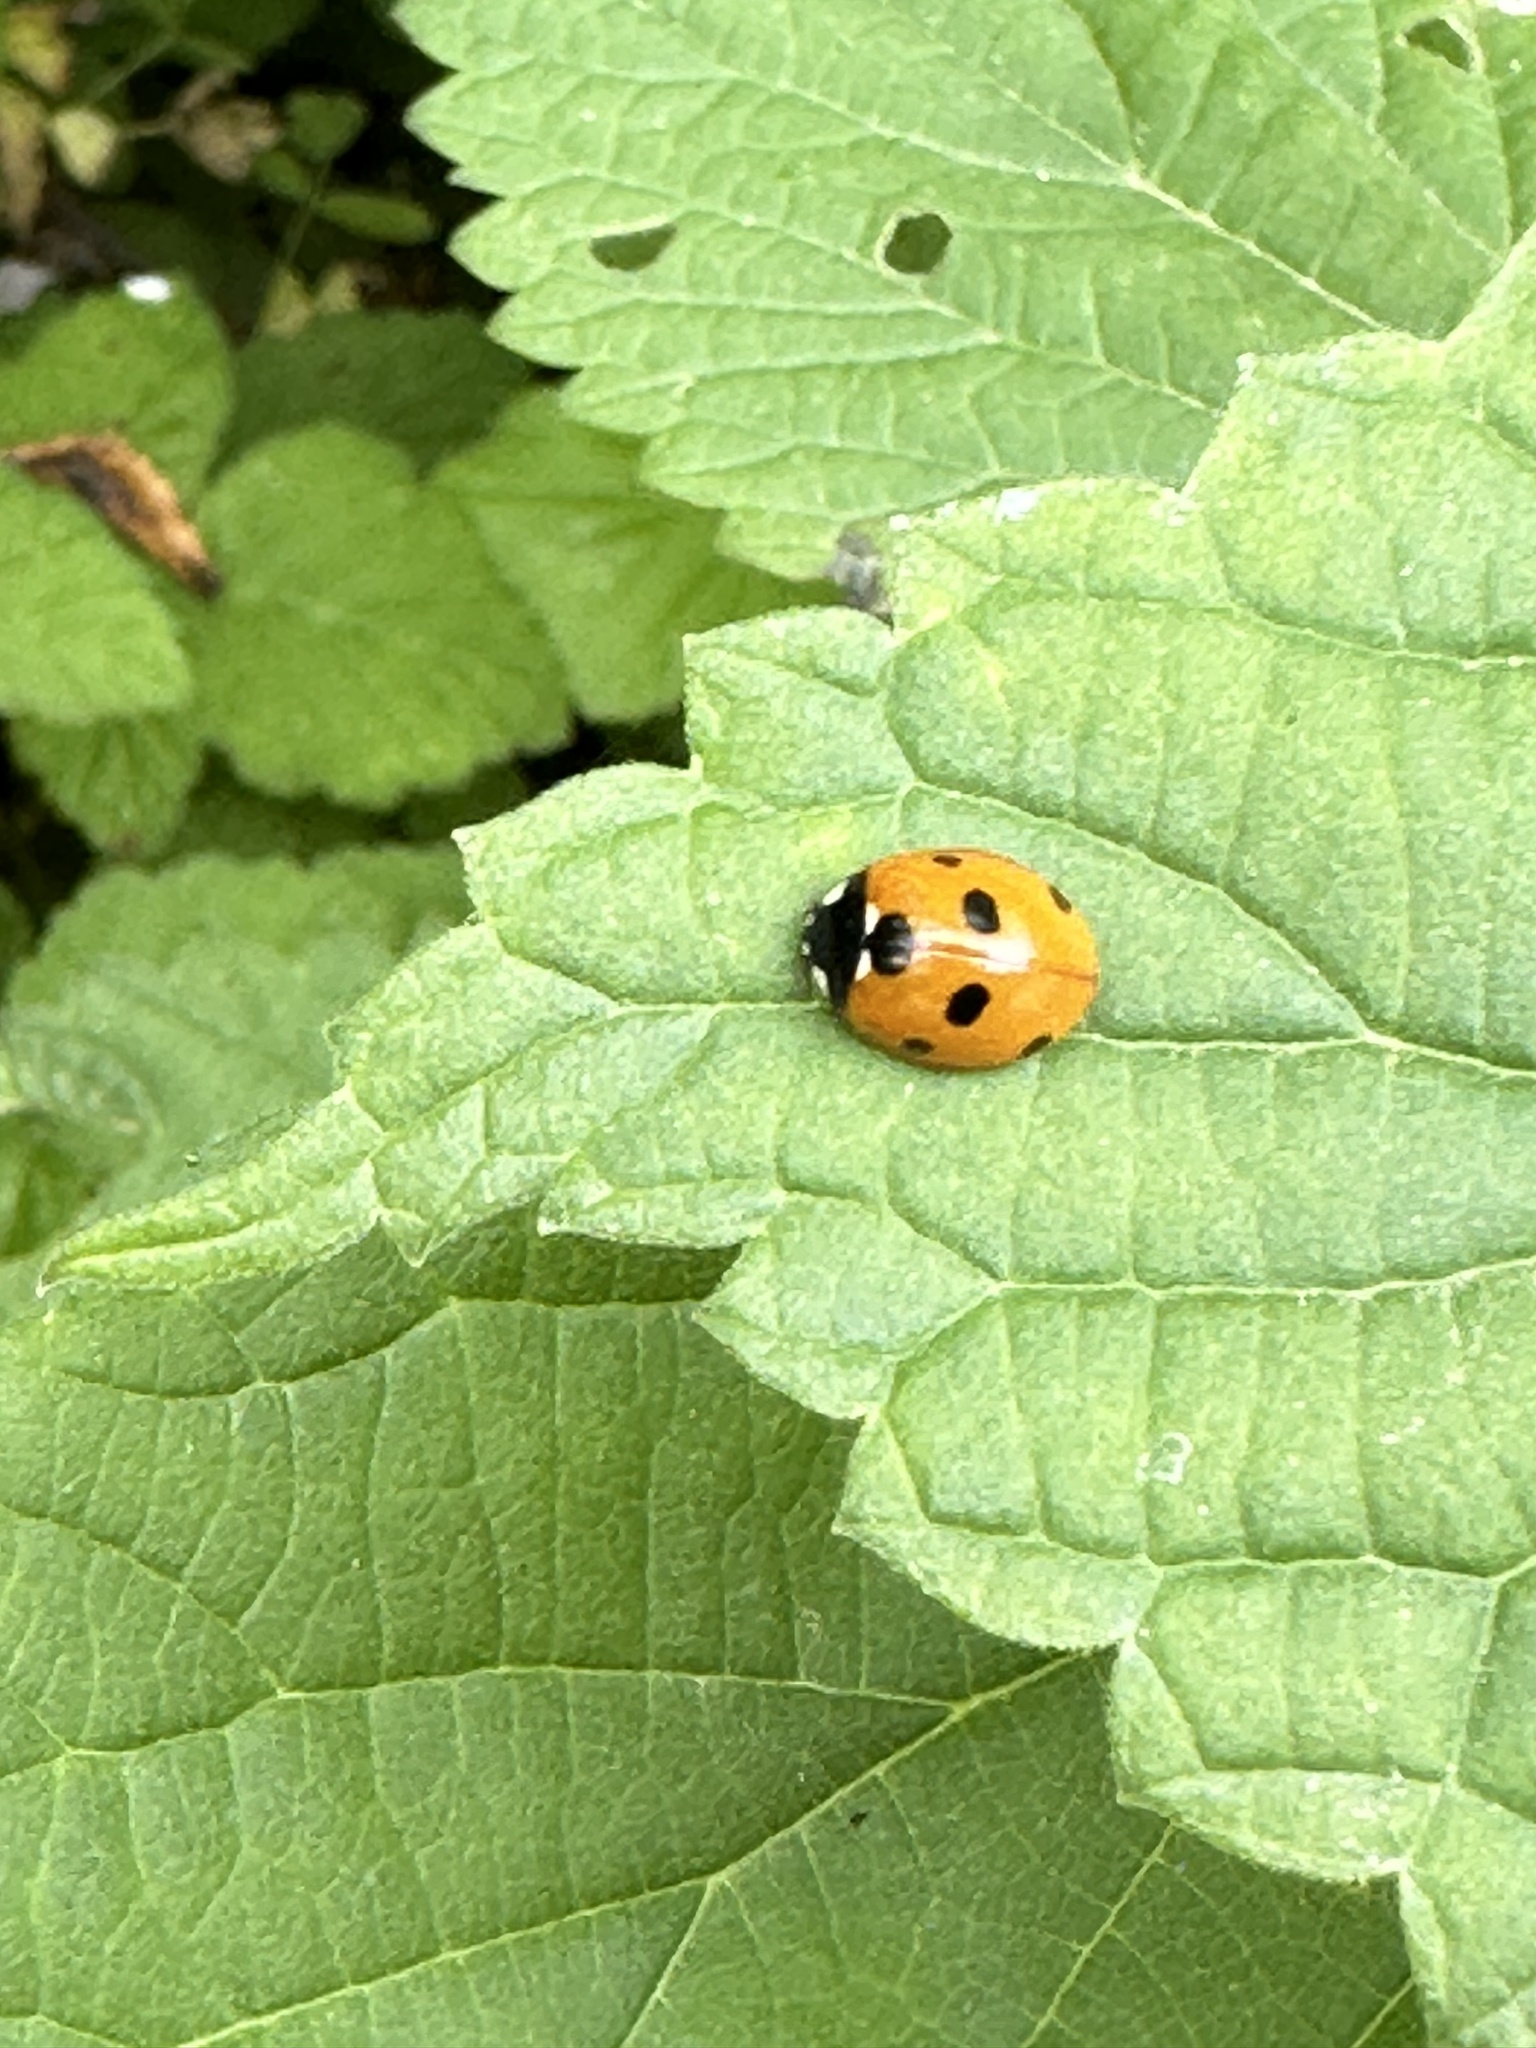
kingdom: Animalia
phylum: Arthropoda
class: Insecta
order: Coleoptera
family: Coccinellidae
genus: Coccinella
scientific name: Coccinella septempunctata
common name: Sevenspotted lady beetle
